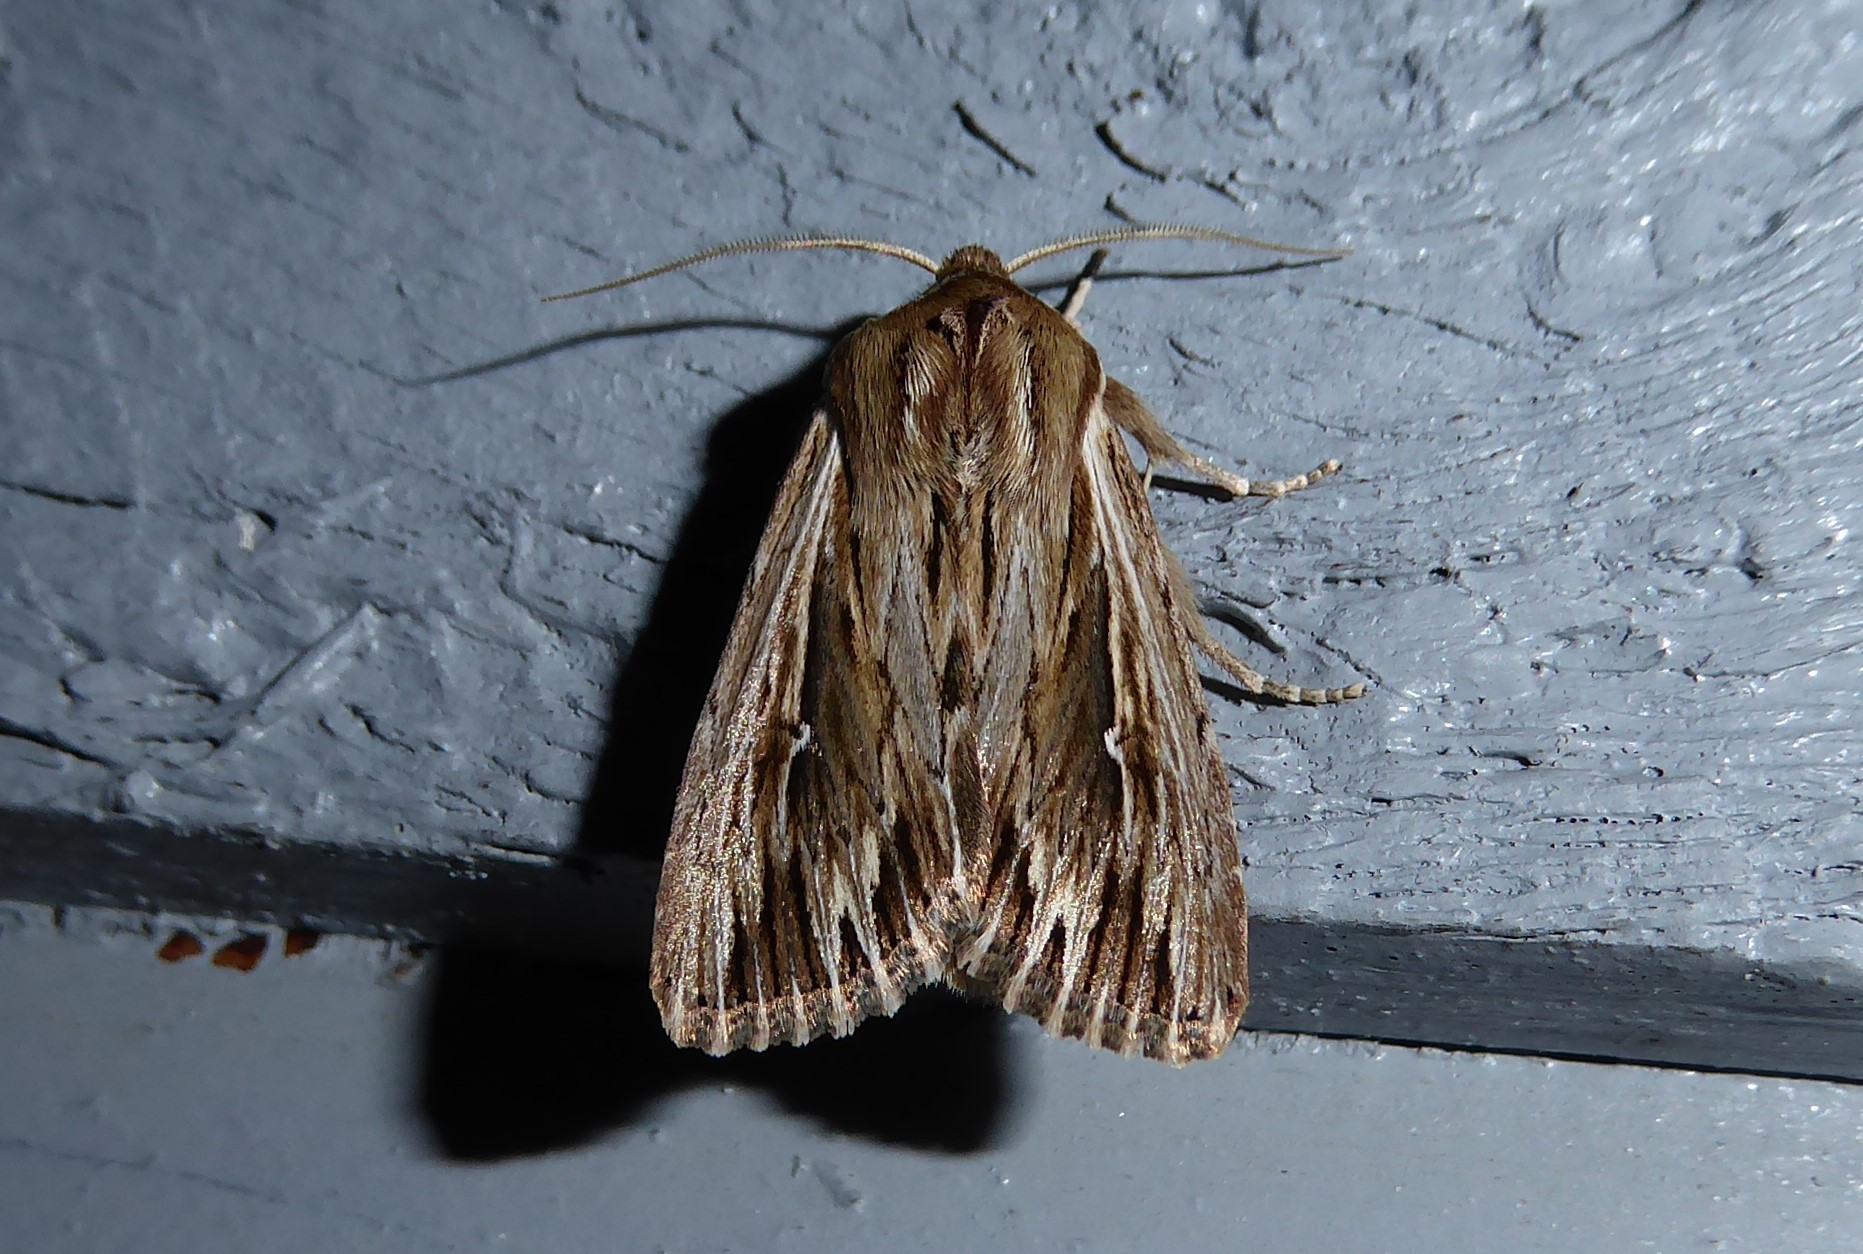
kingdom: Animalia
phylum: Arthropoda
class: Insecta
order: Lepidoptera
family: Noctuidae
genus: Persectania
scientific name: Persectania aversa
